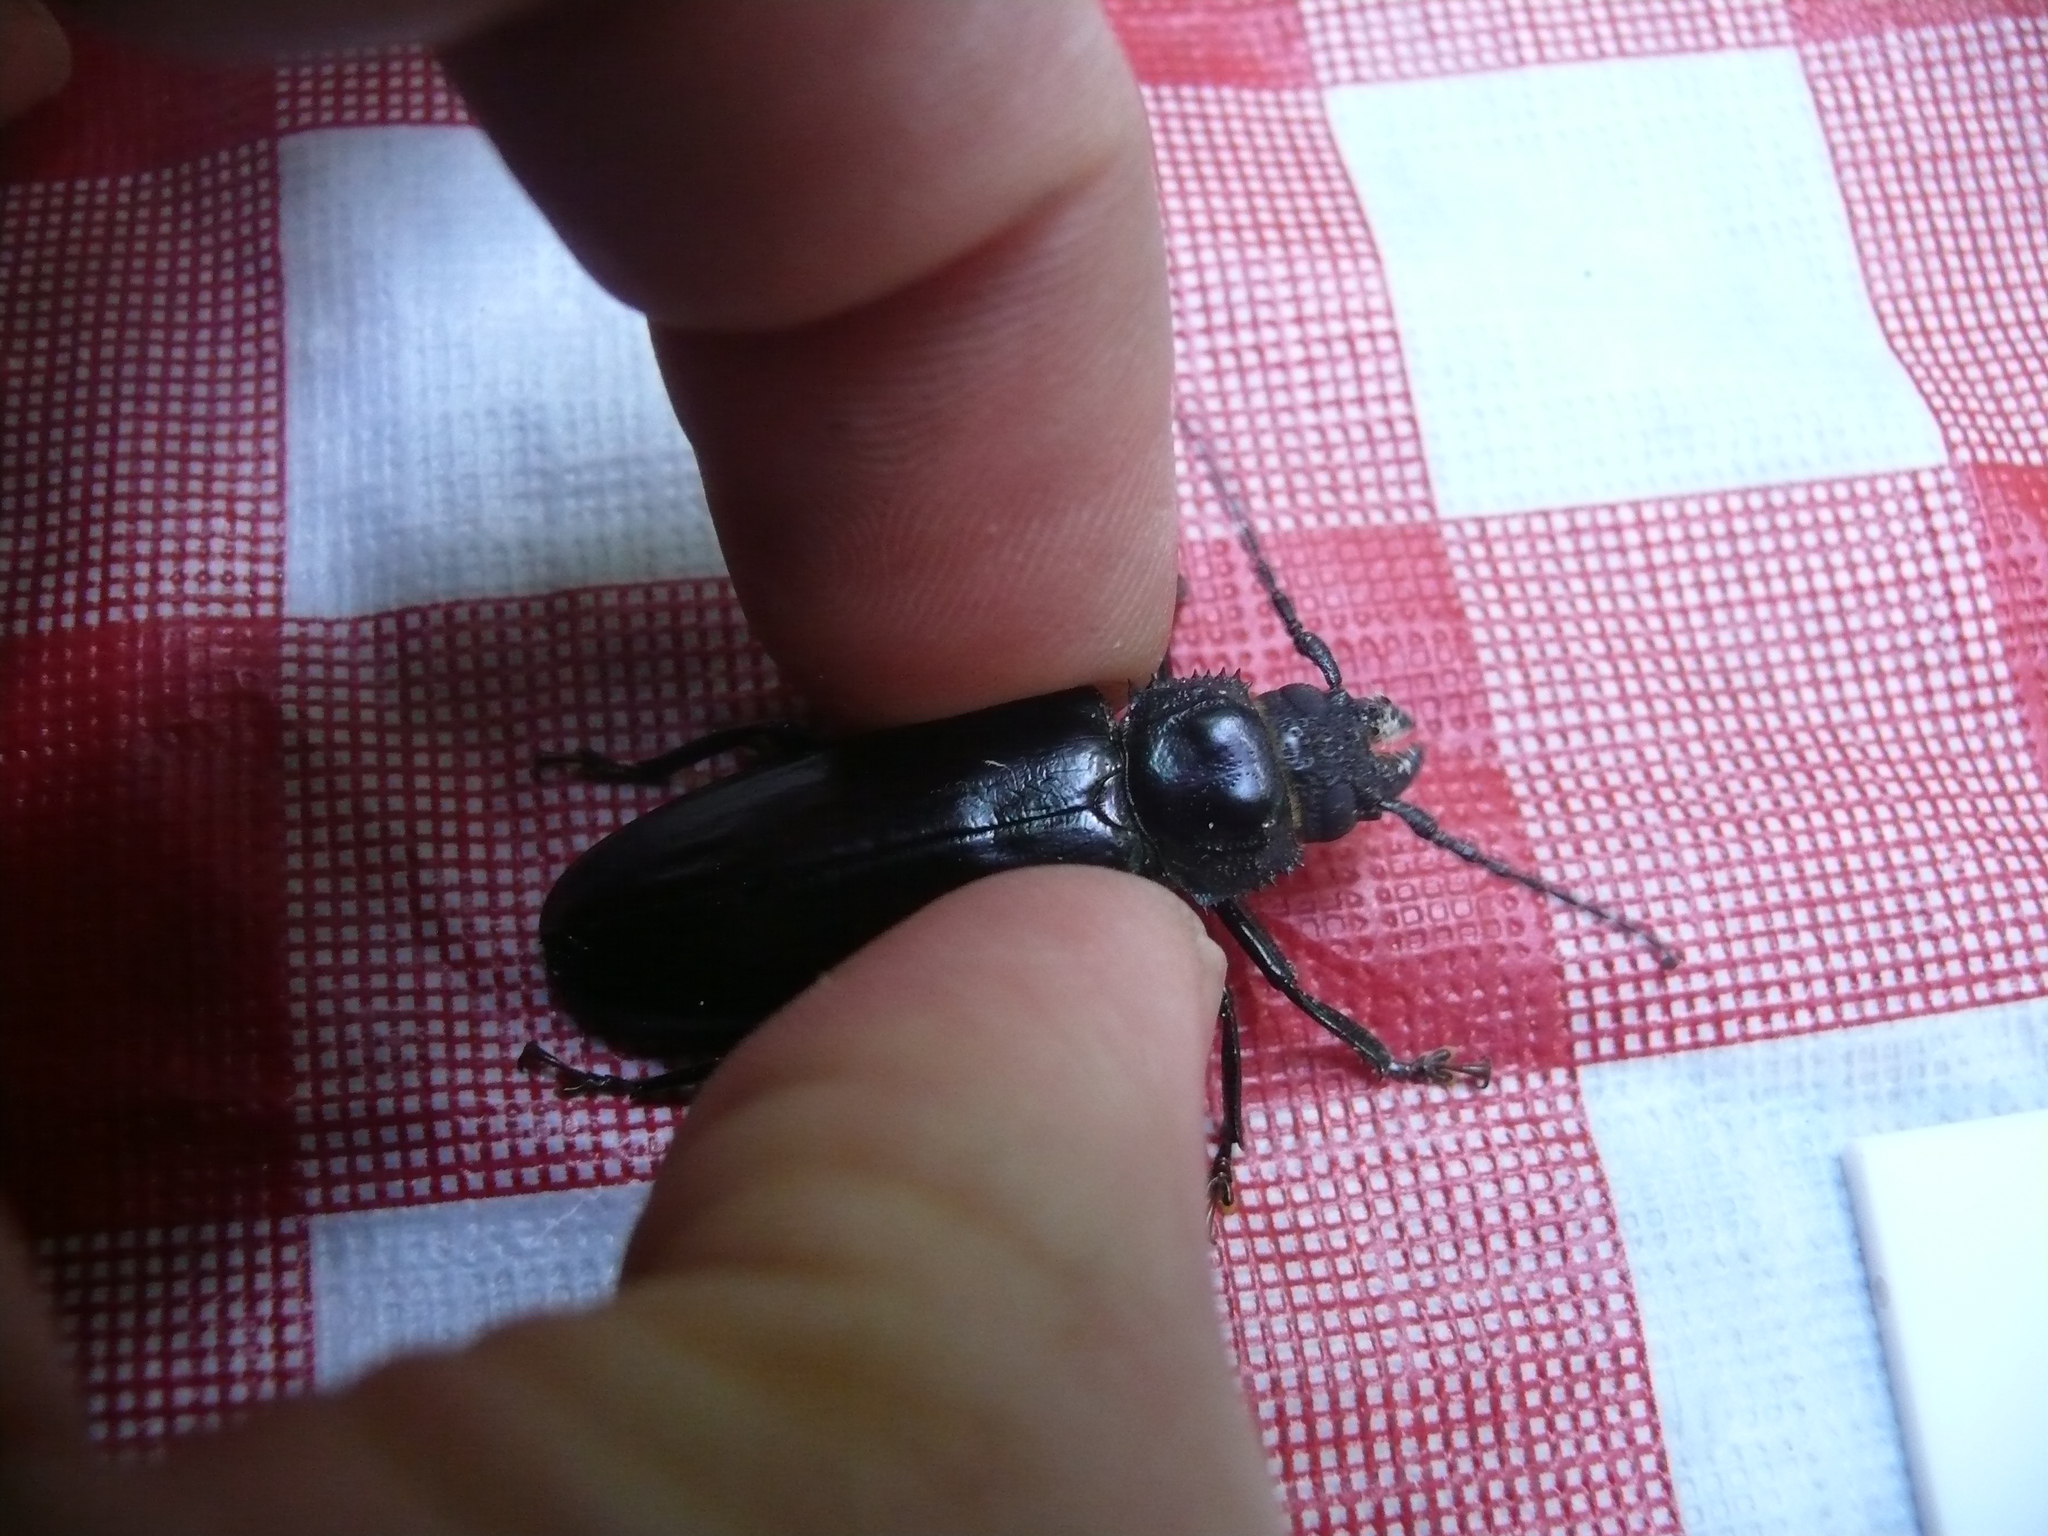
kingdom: Animalia
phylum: Arthropoda
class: Insecta
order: Coleoptera
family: Cerambycidae
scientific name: Cerambycidae
